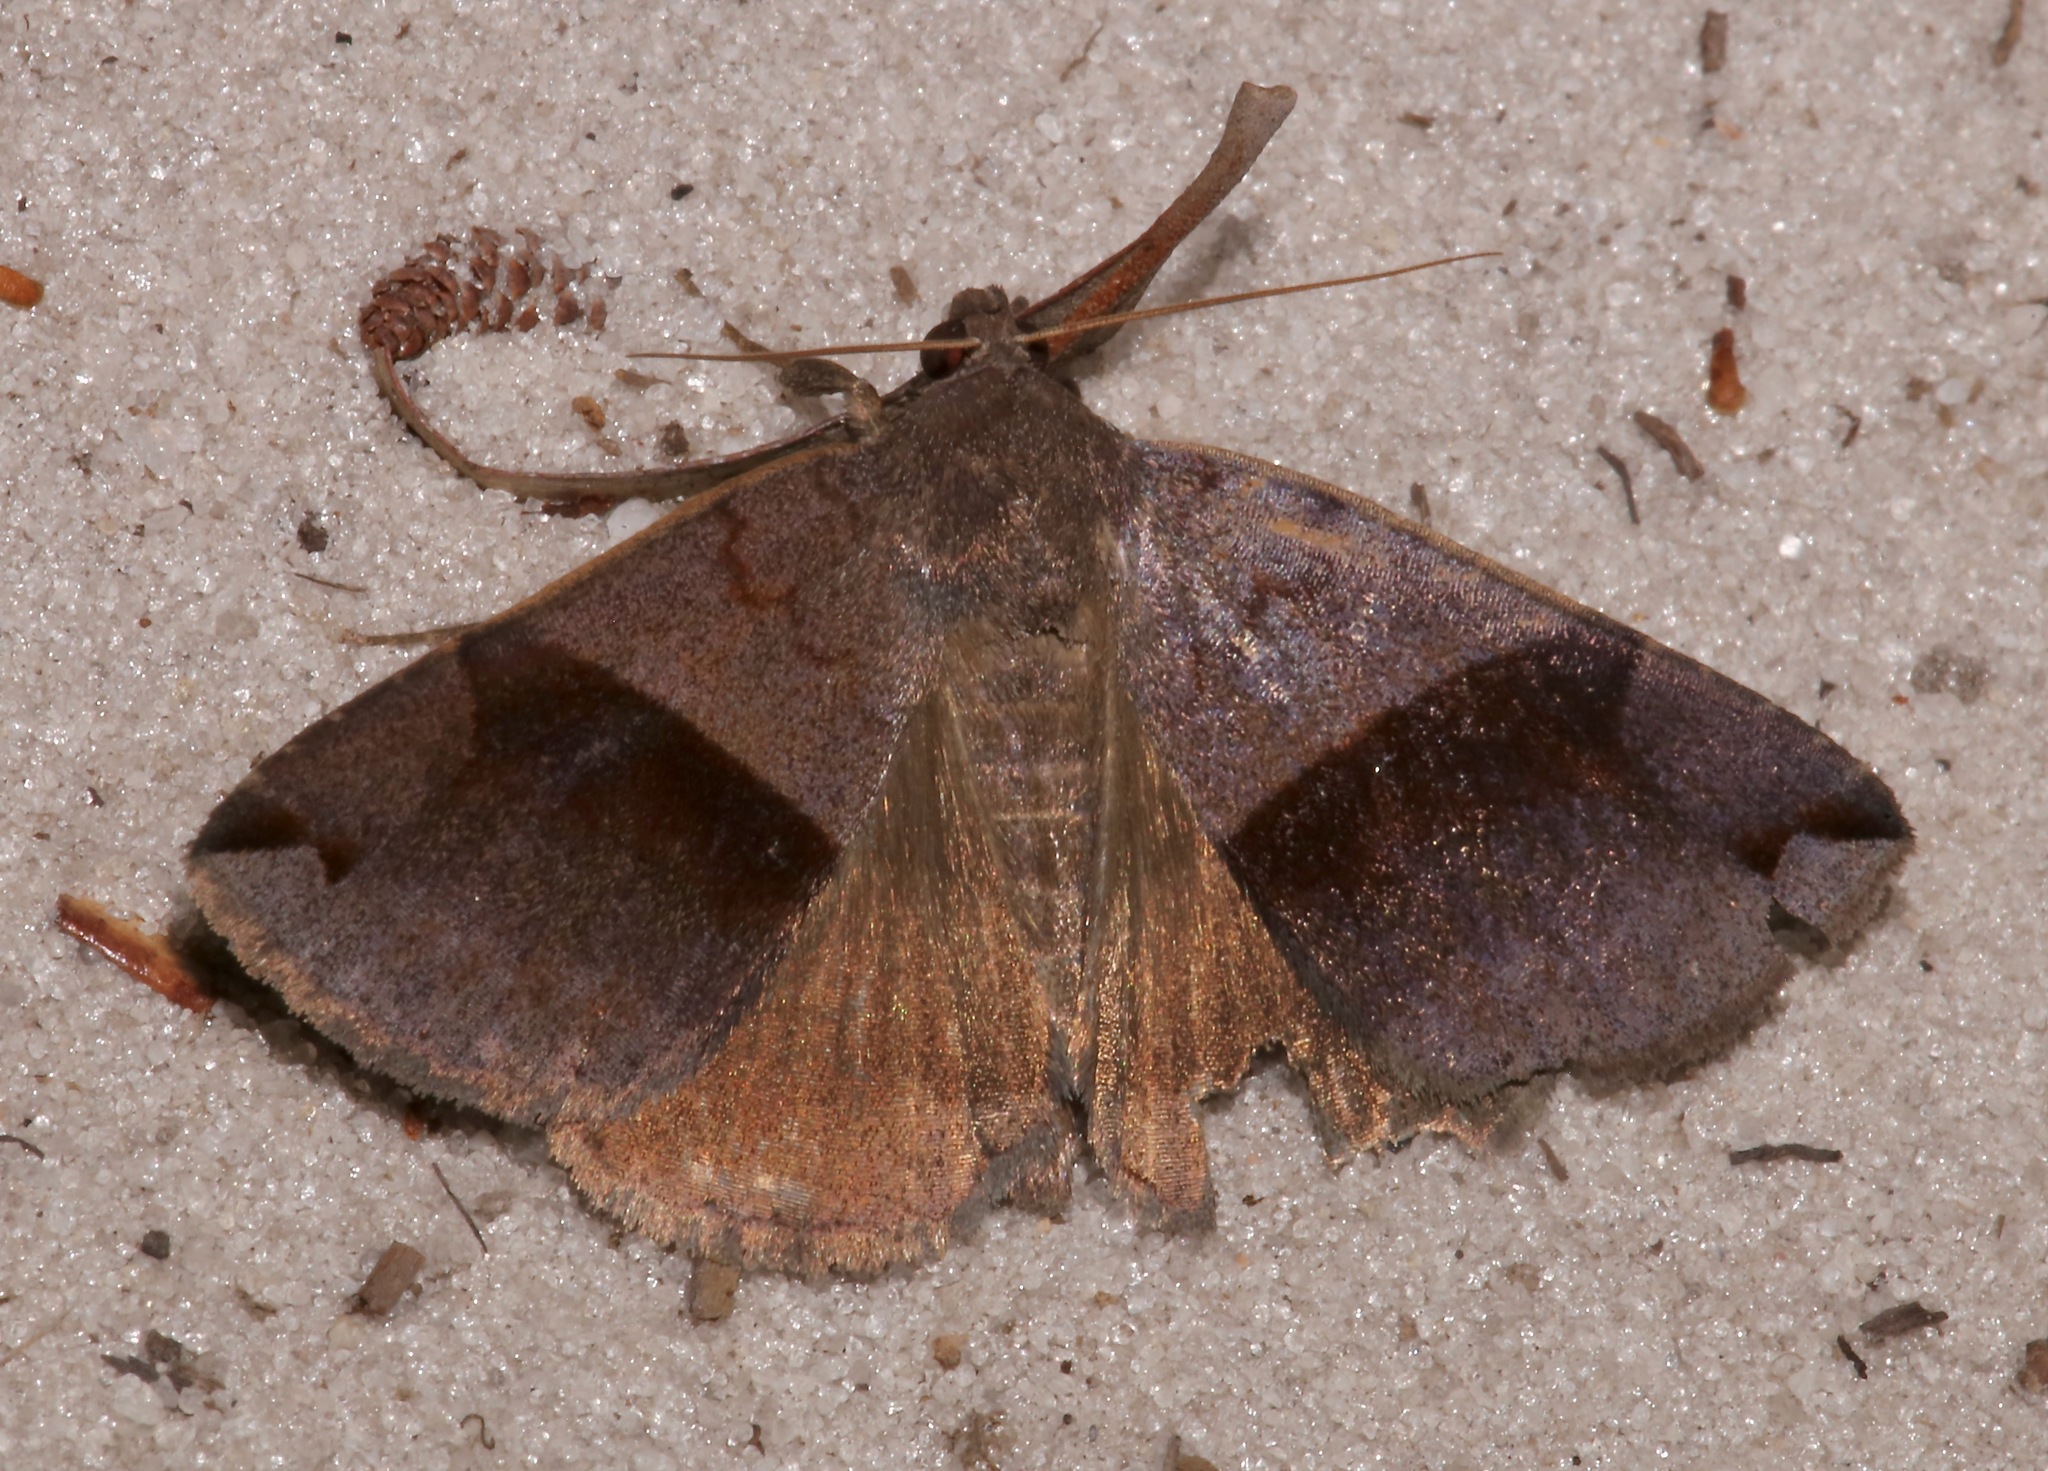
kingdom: Animalia
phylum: Arthropoda
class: Insecta
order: Lepidoptera
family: Erebidae
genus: Gondysia
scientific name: Gondysia similis
